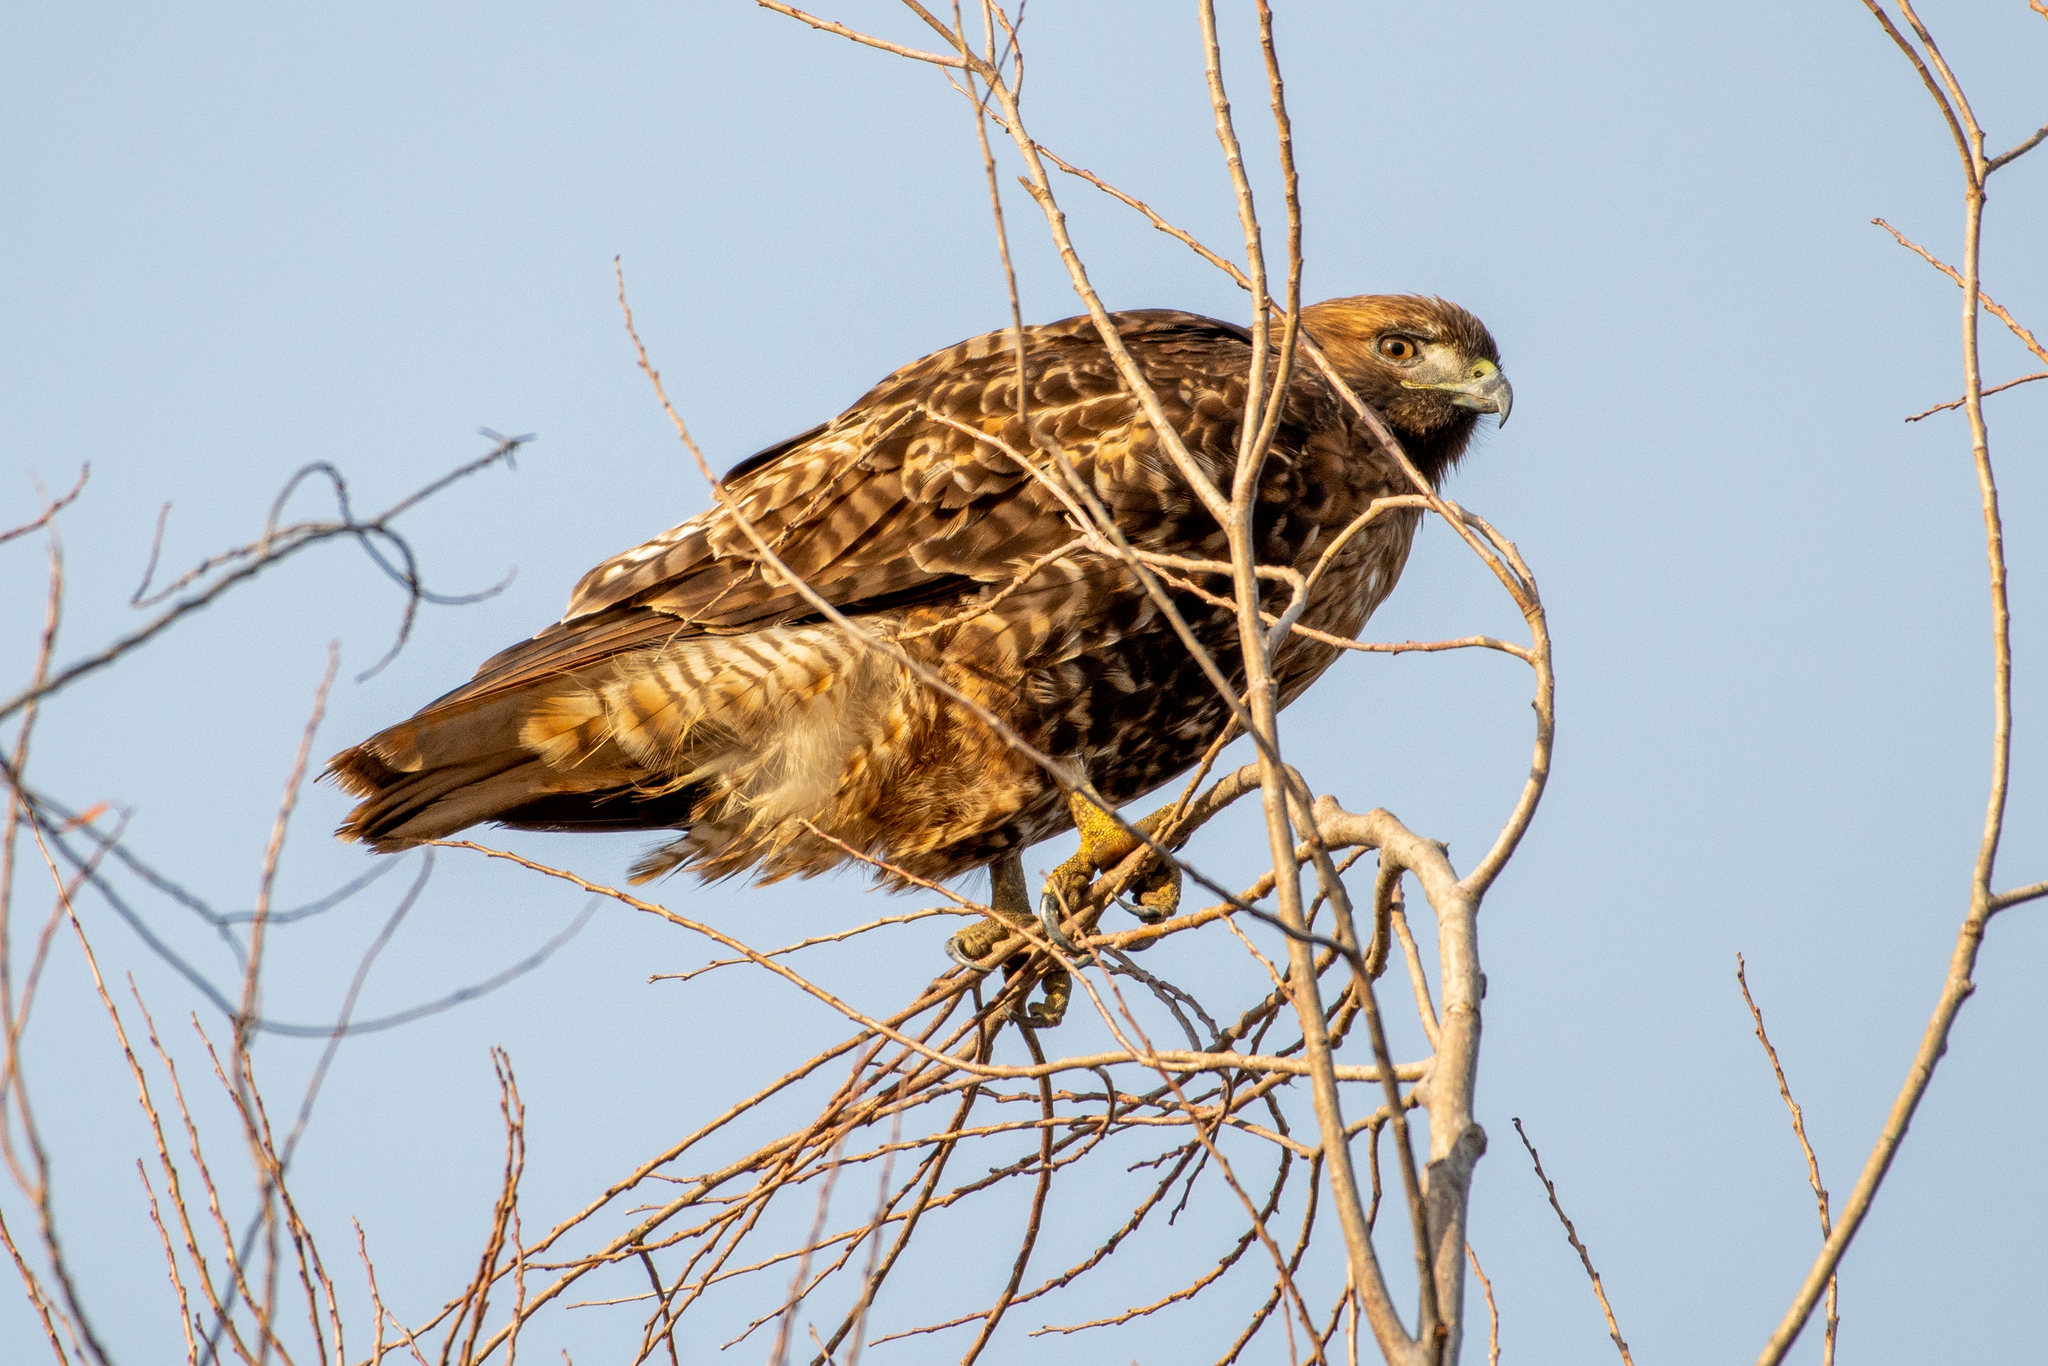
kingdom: Animalia
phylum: Chordata
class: Aves
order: Accipitriformes
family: Accipitridae
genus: Buteo
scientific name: Buteo jamaicensis
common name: Red-tailed hawk
